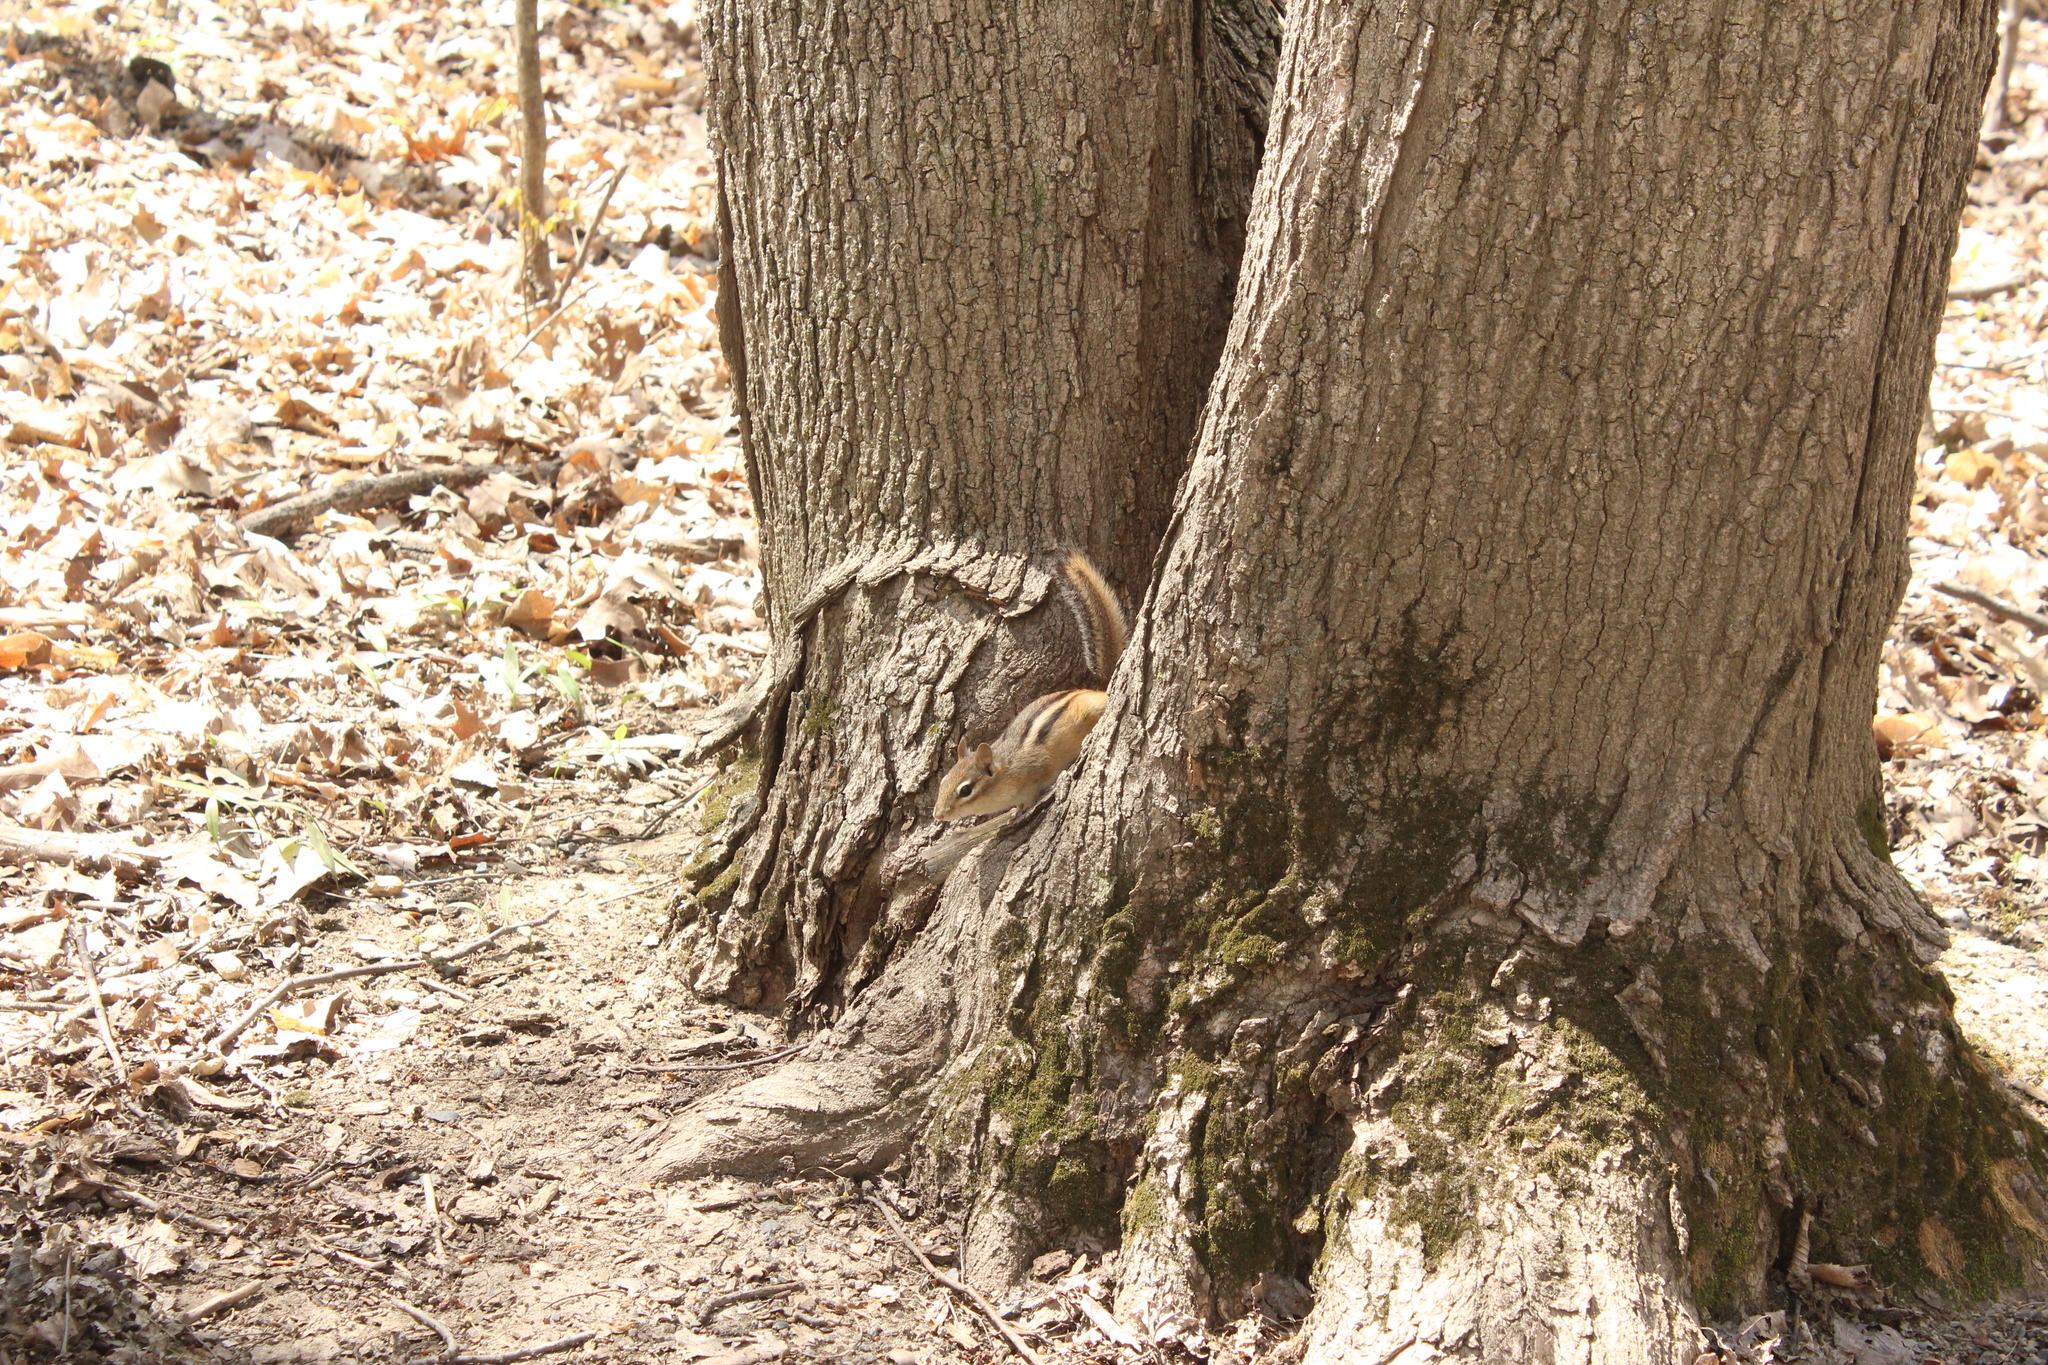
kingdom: Animalia
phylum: Chordata
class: Mammalia
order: Rodentia
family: Sciuridae
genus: Tamias
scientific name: Tamias striatus
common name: Eastern chipmunk
